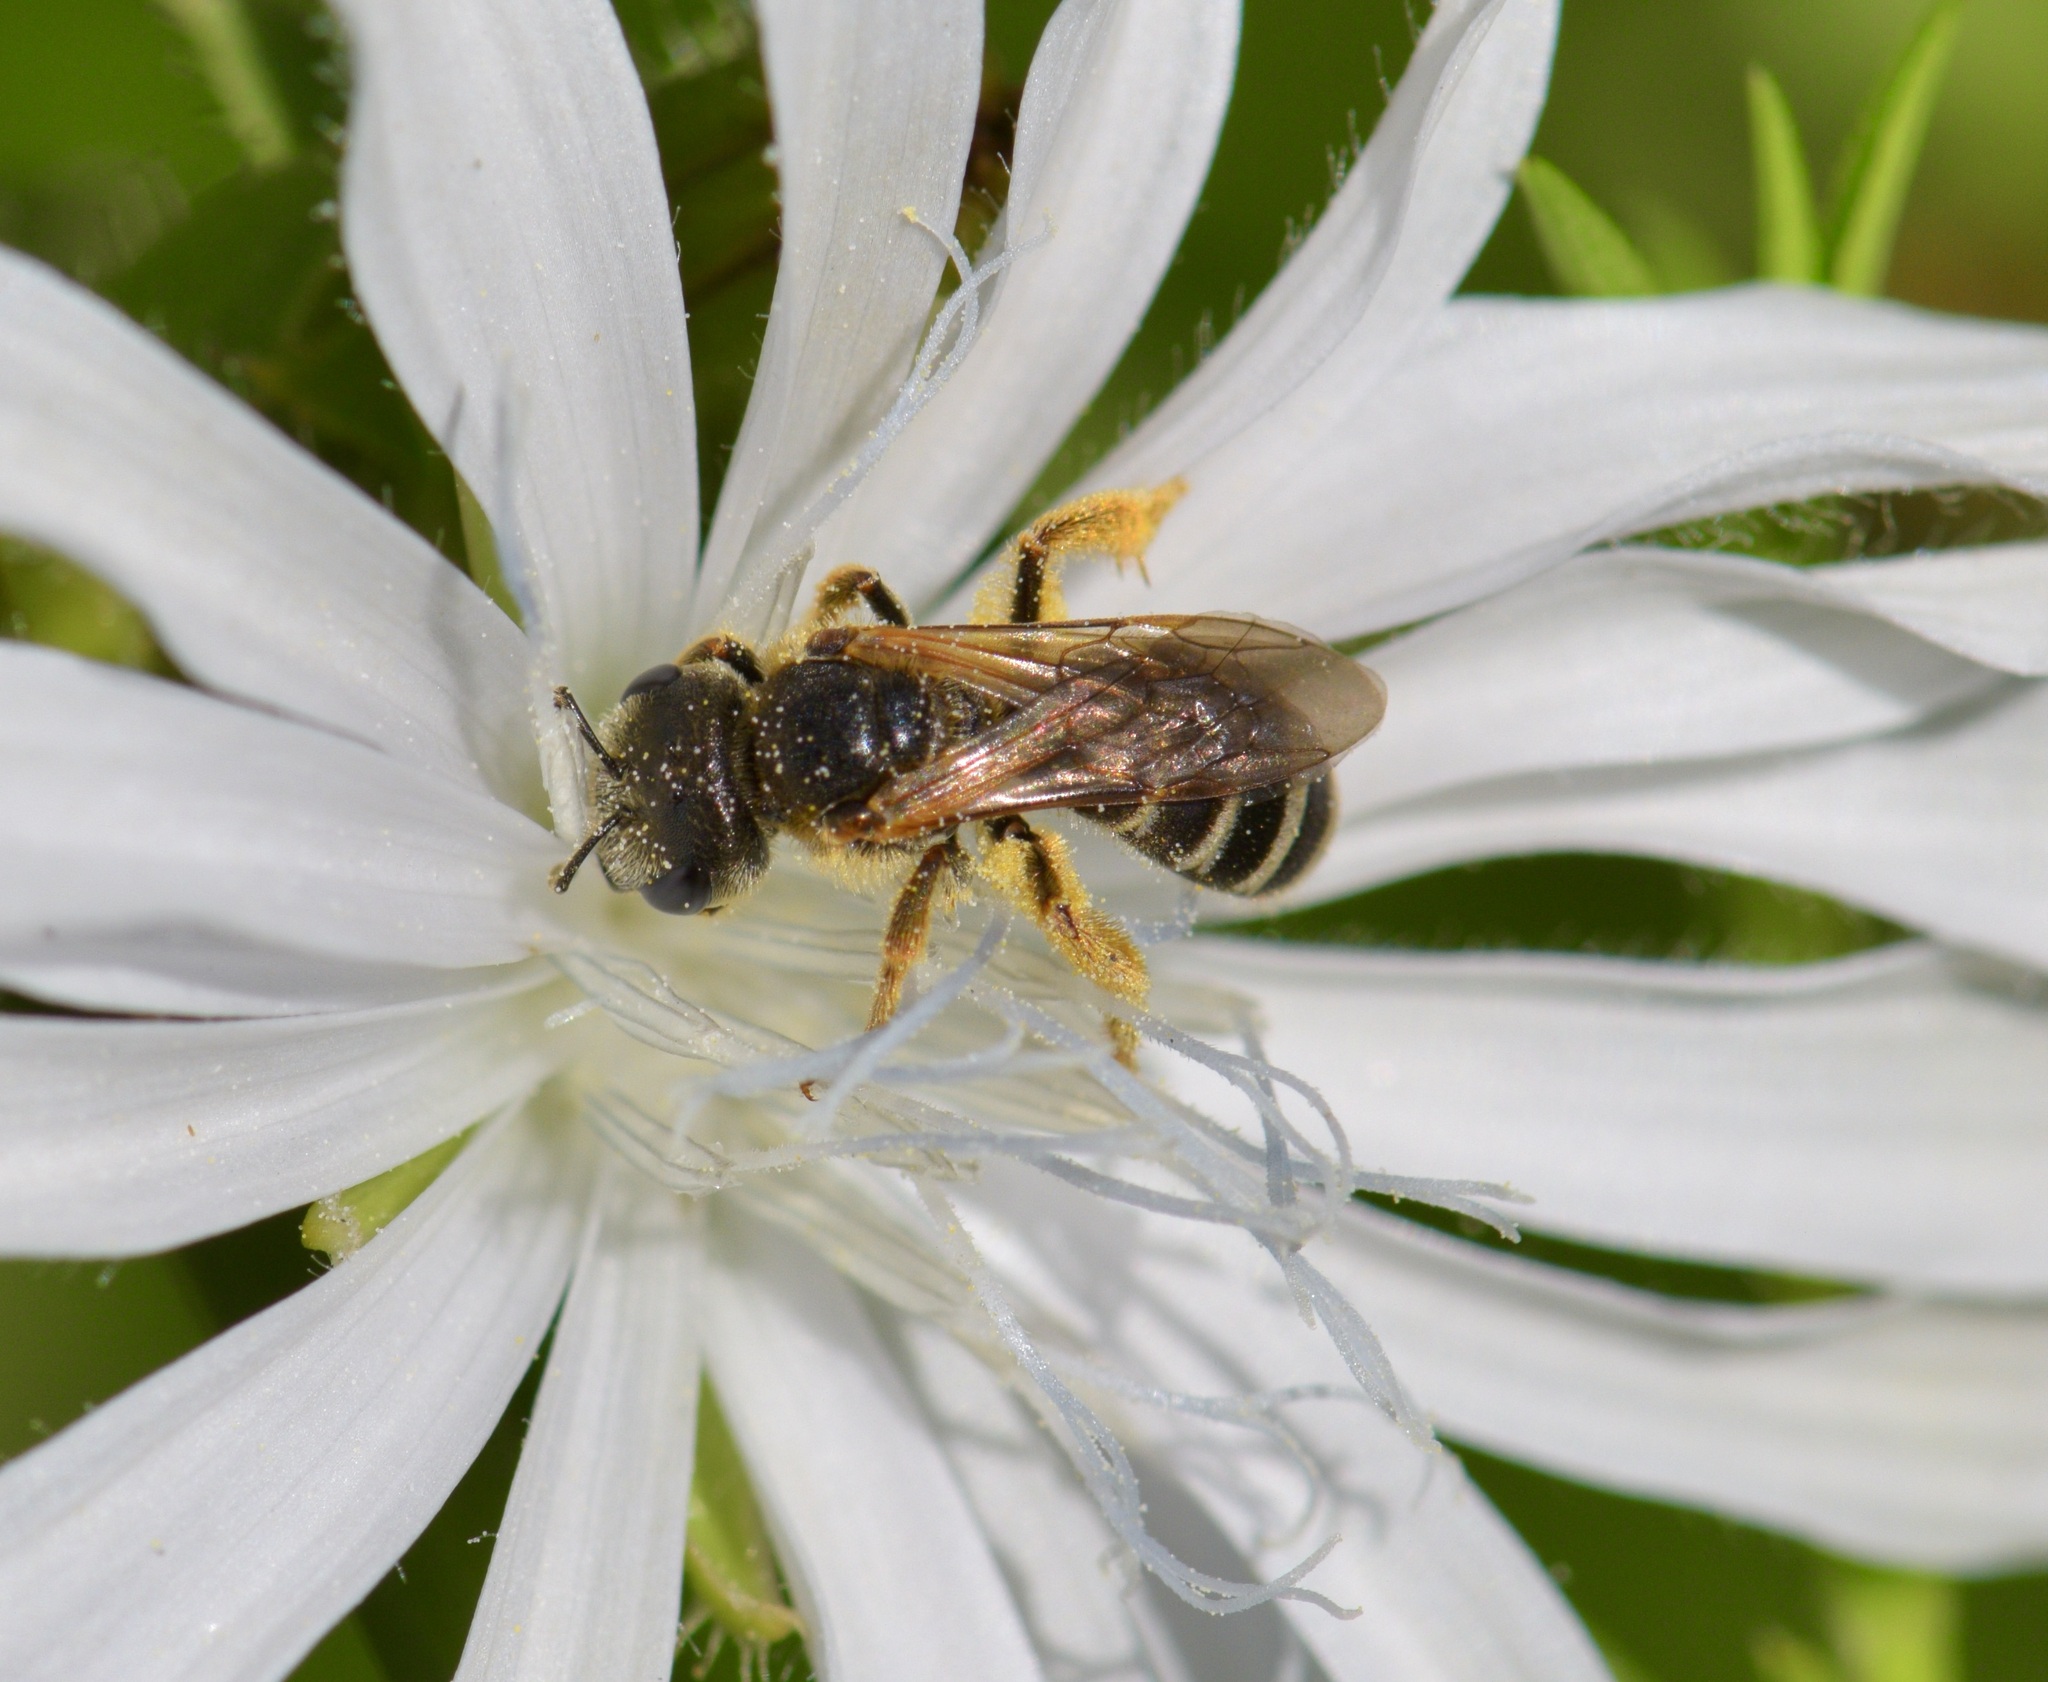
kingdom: Animalia
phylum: Arthropoda
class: Insecta
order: Hymenoptera
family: Halictidae
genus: Halictus
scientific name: Halictus ligatus
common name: Ligated furrow bee
